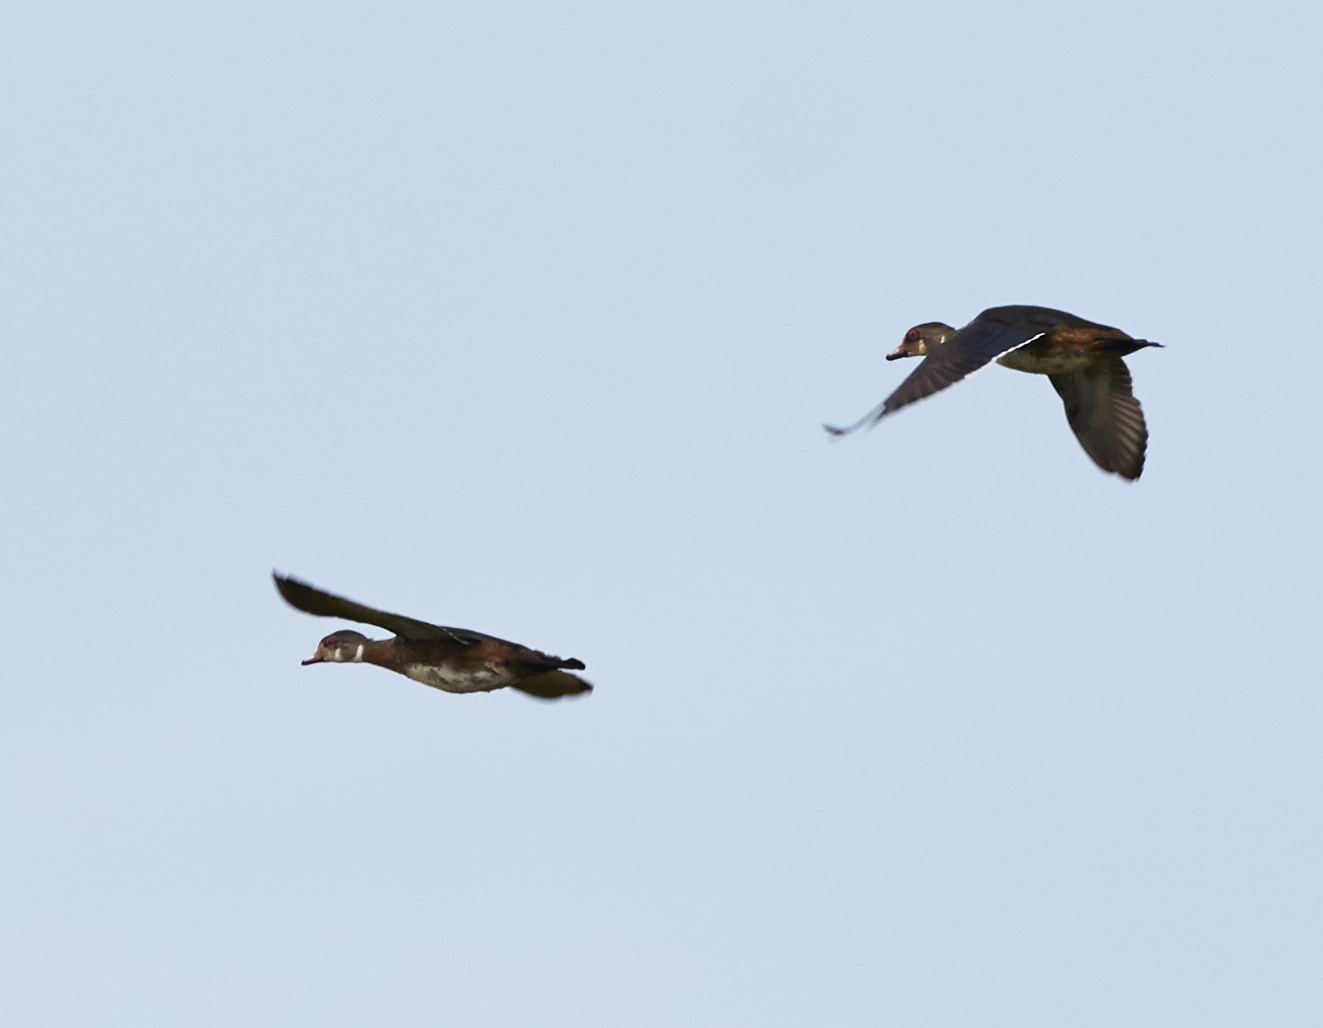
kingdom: Animalia
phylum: Chordata
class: Aves
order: Anseriformes
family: Anatidae
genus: Aix
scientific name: Aix sponsa
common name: Wood duck
